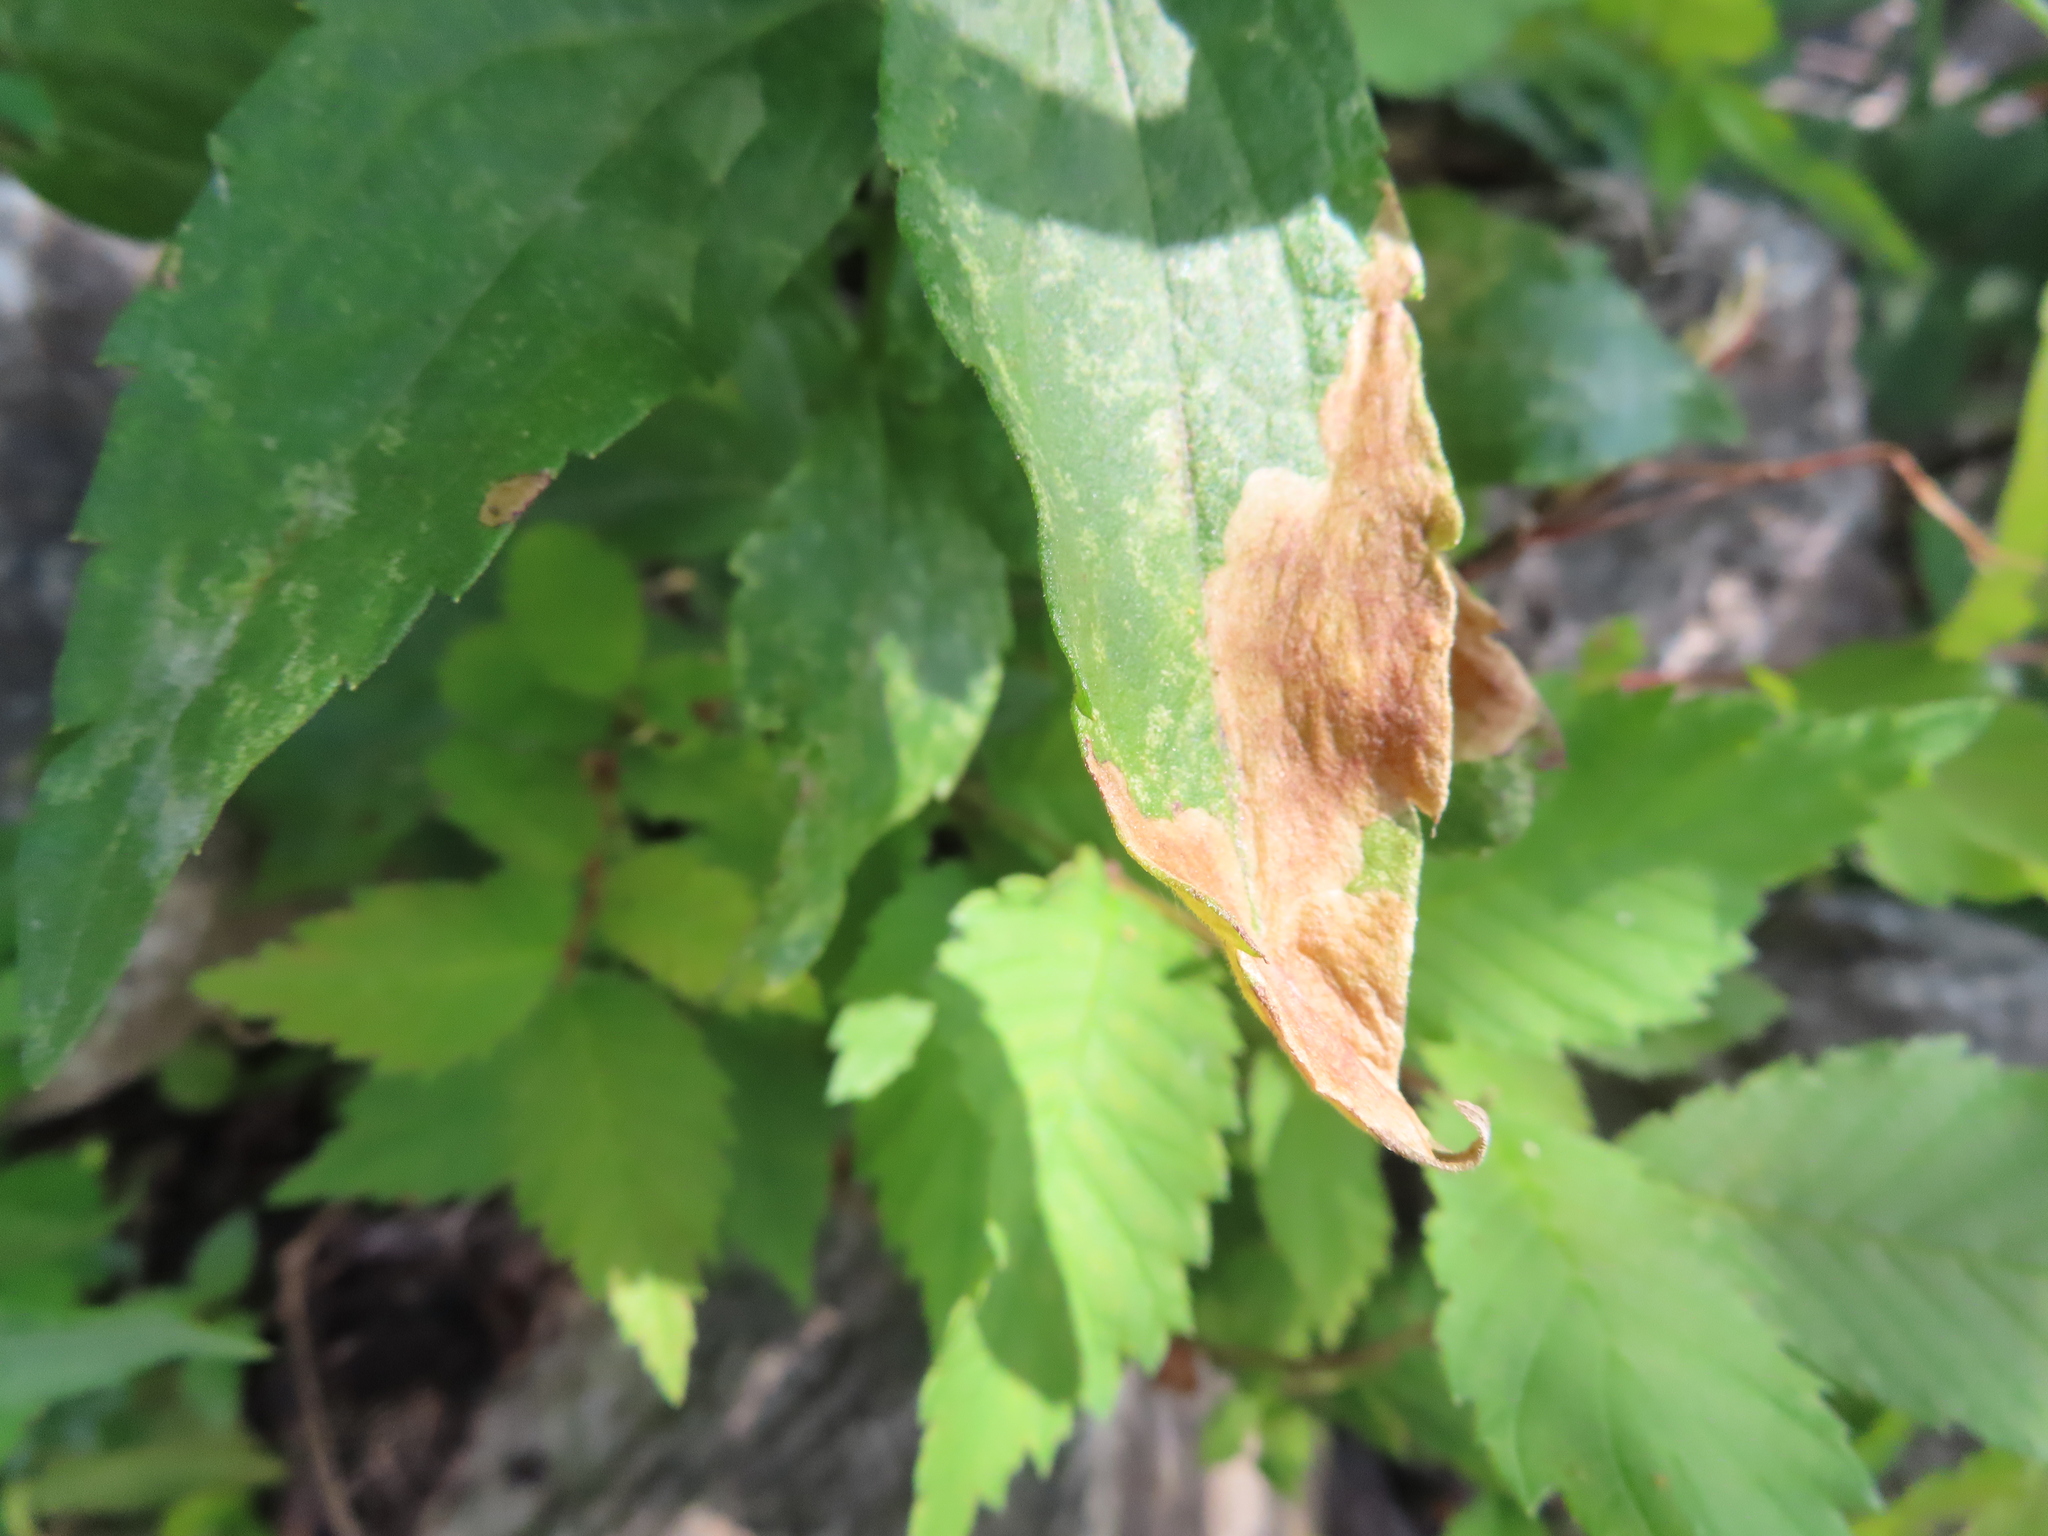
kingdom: Animalia
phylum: Arthropoda
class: Insecta
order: Diptera
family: Agromyzidae
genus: Nemorimyza
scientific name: Nemorimyza posticata
